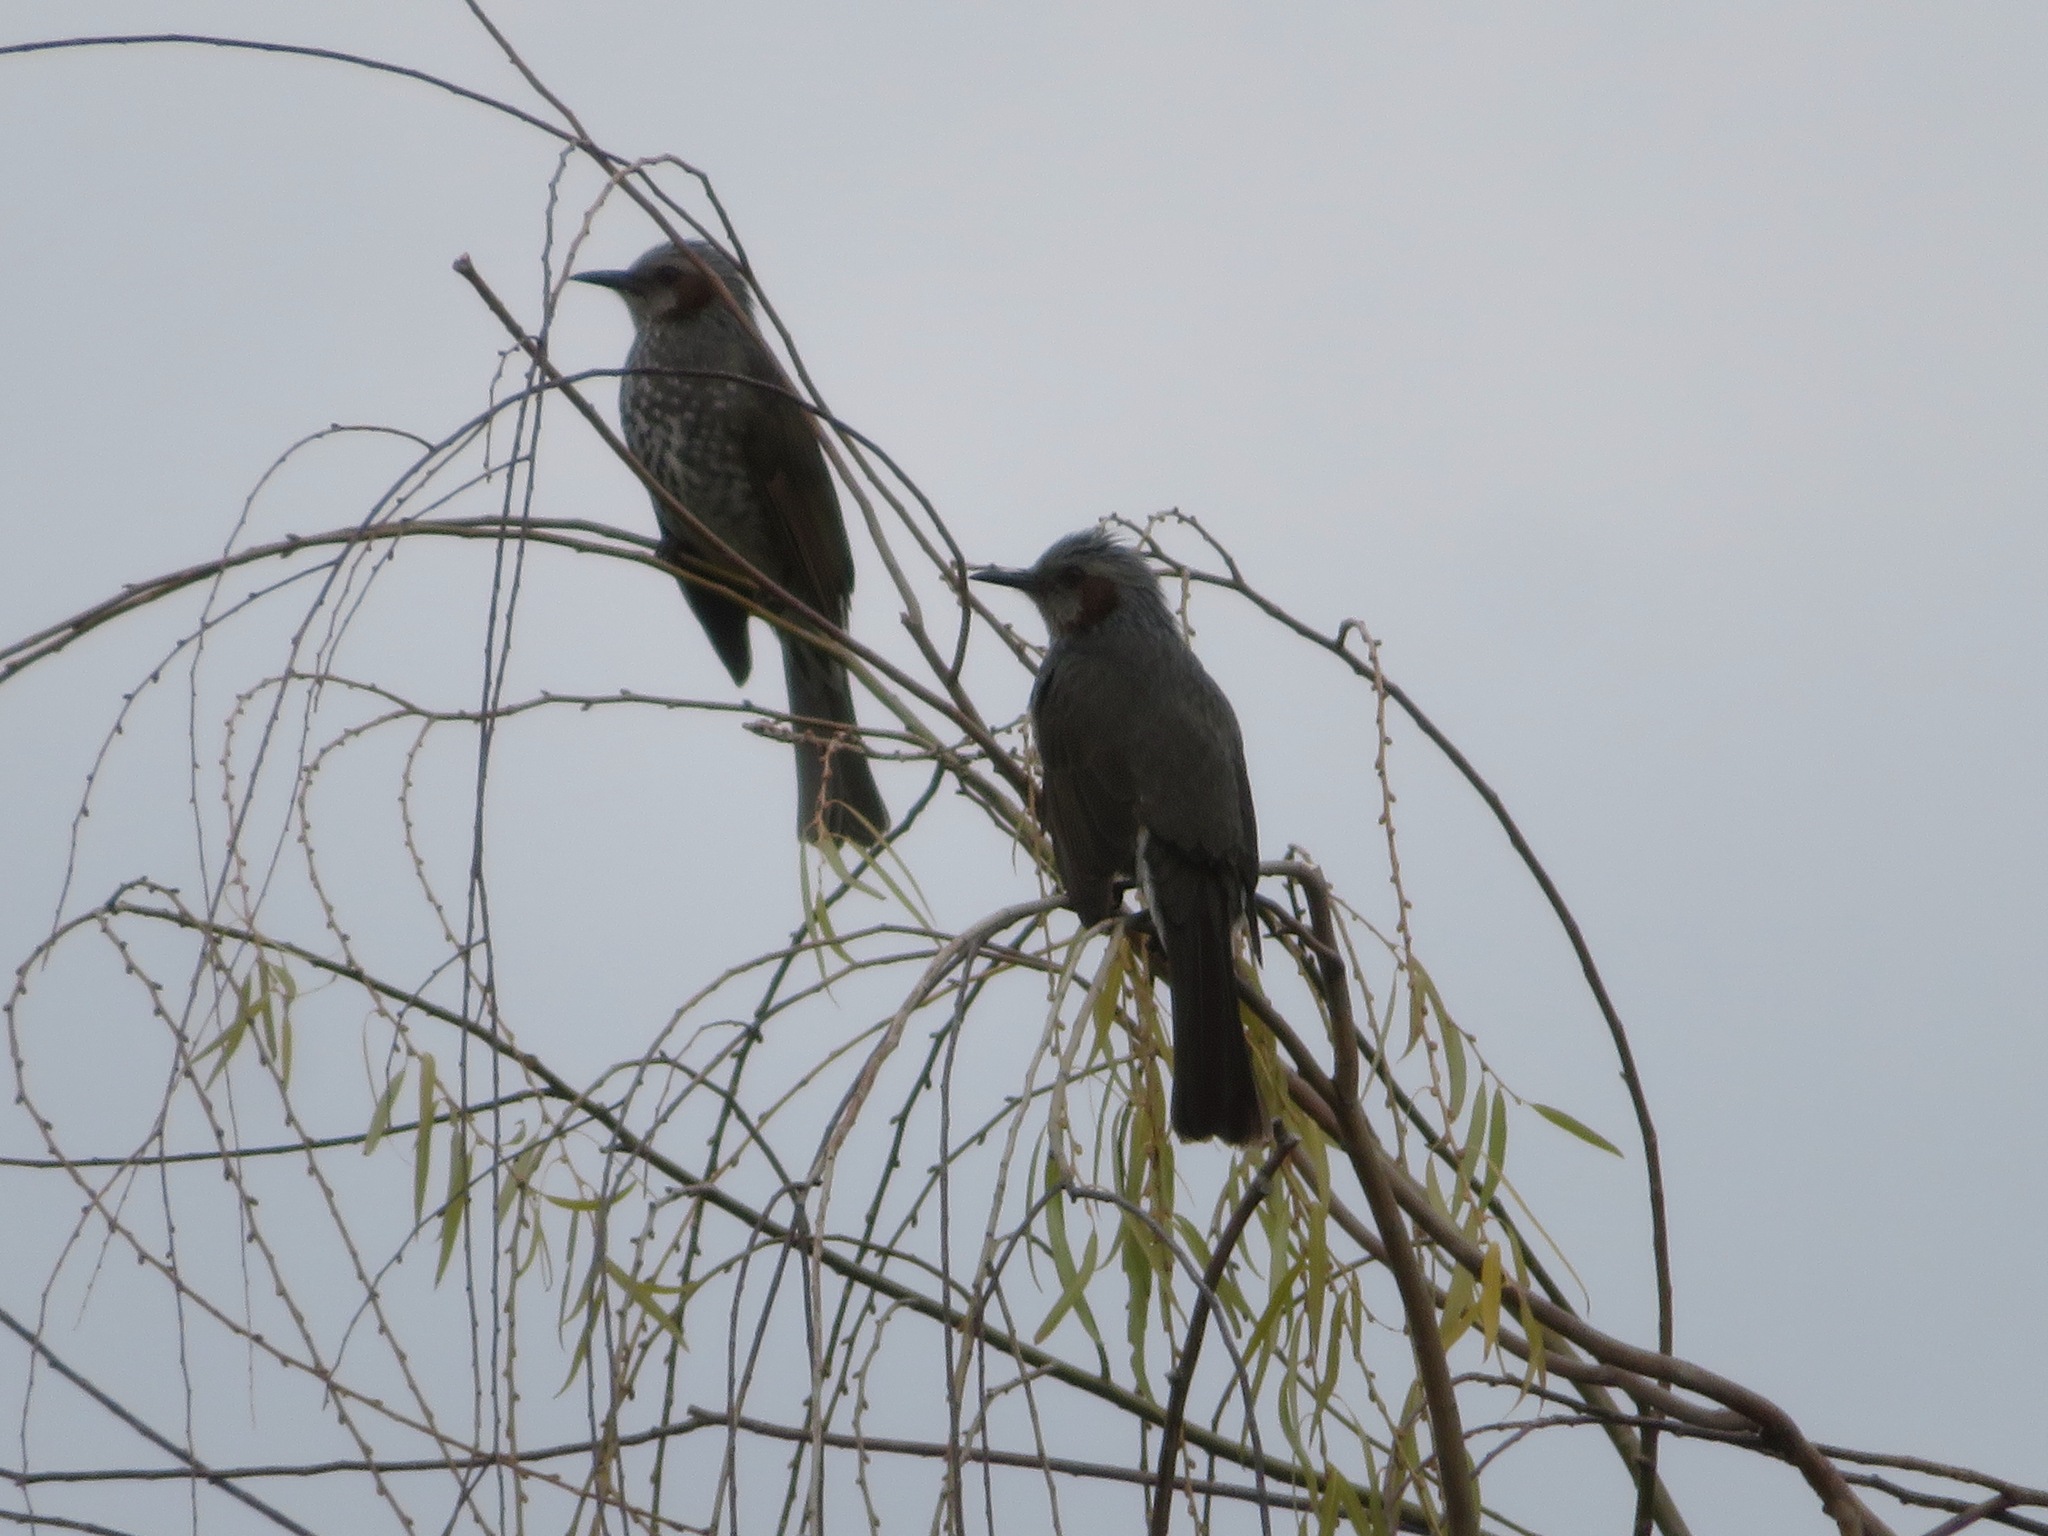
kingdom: Animalia
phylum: Chordata
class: Aves
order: Passeriformes
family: Pycnonotidae
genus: Hypsipetes
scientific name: Hypsipetes amaurotis
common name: Brown-eared bulbul
